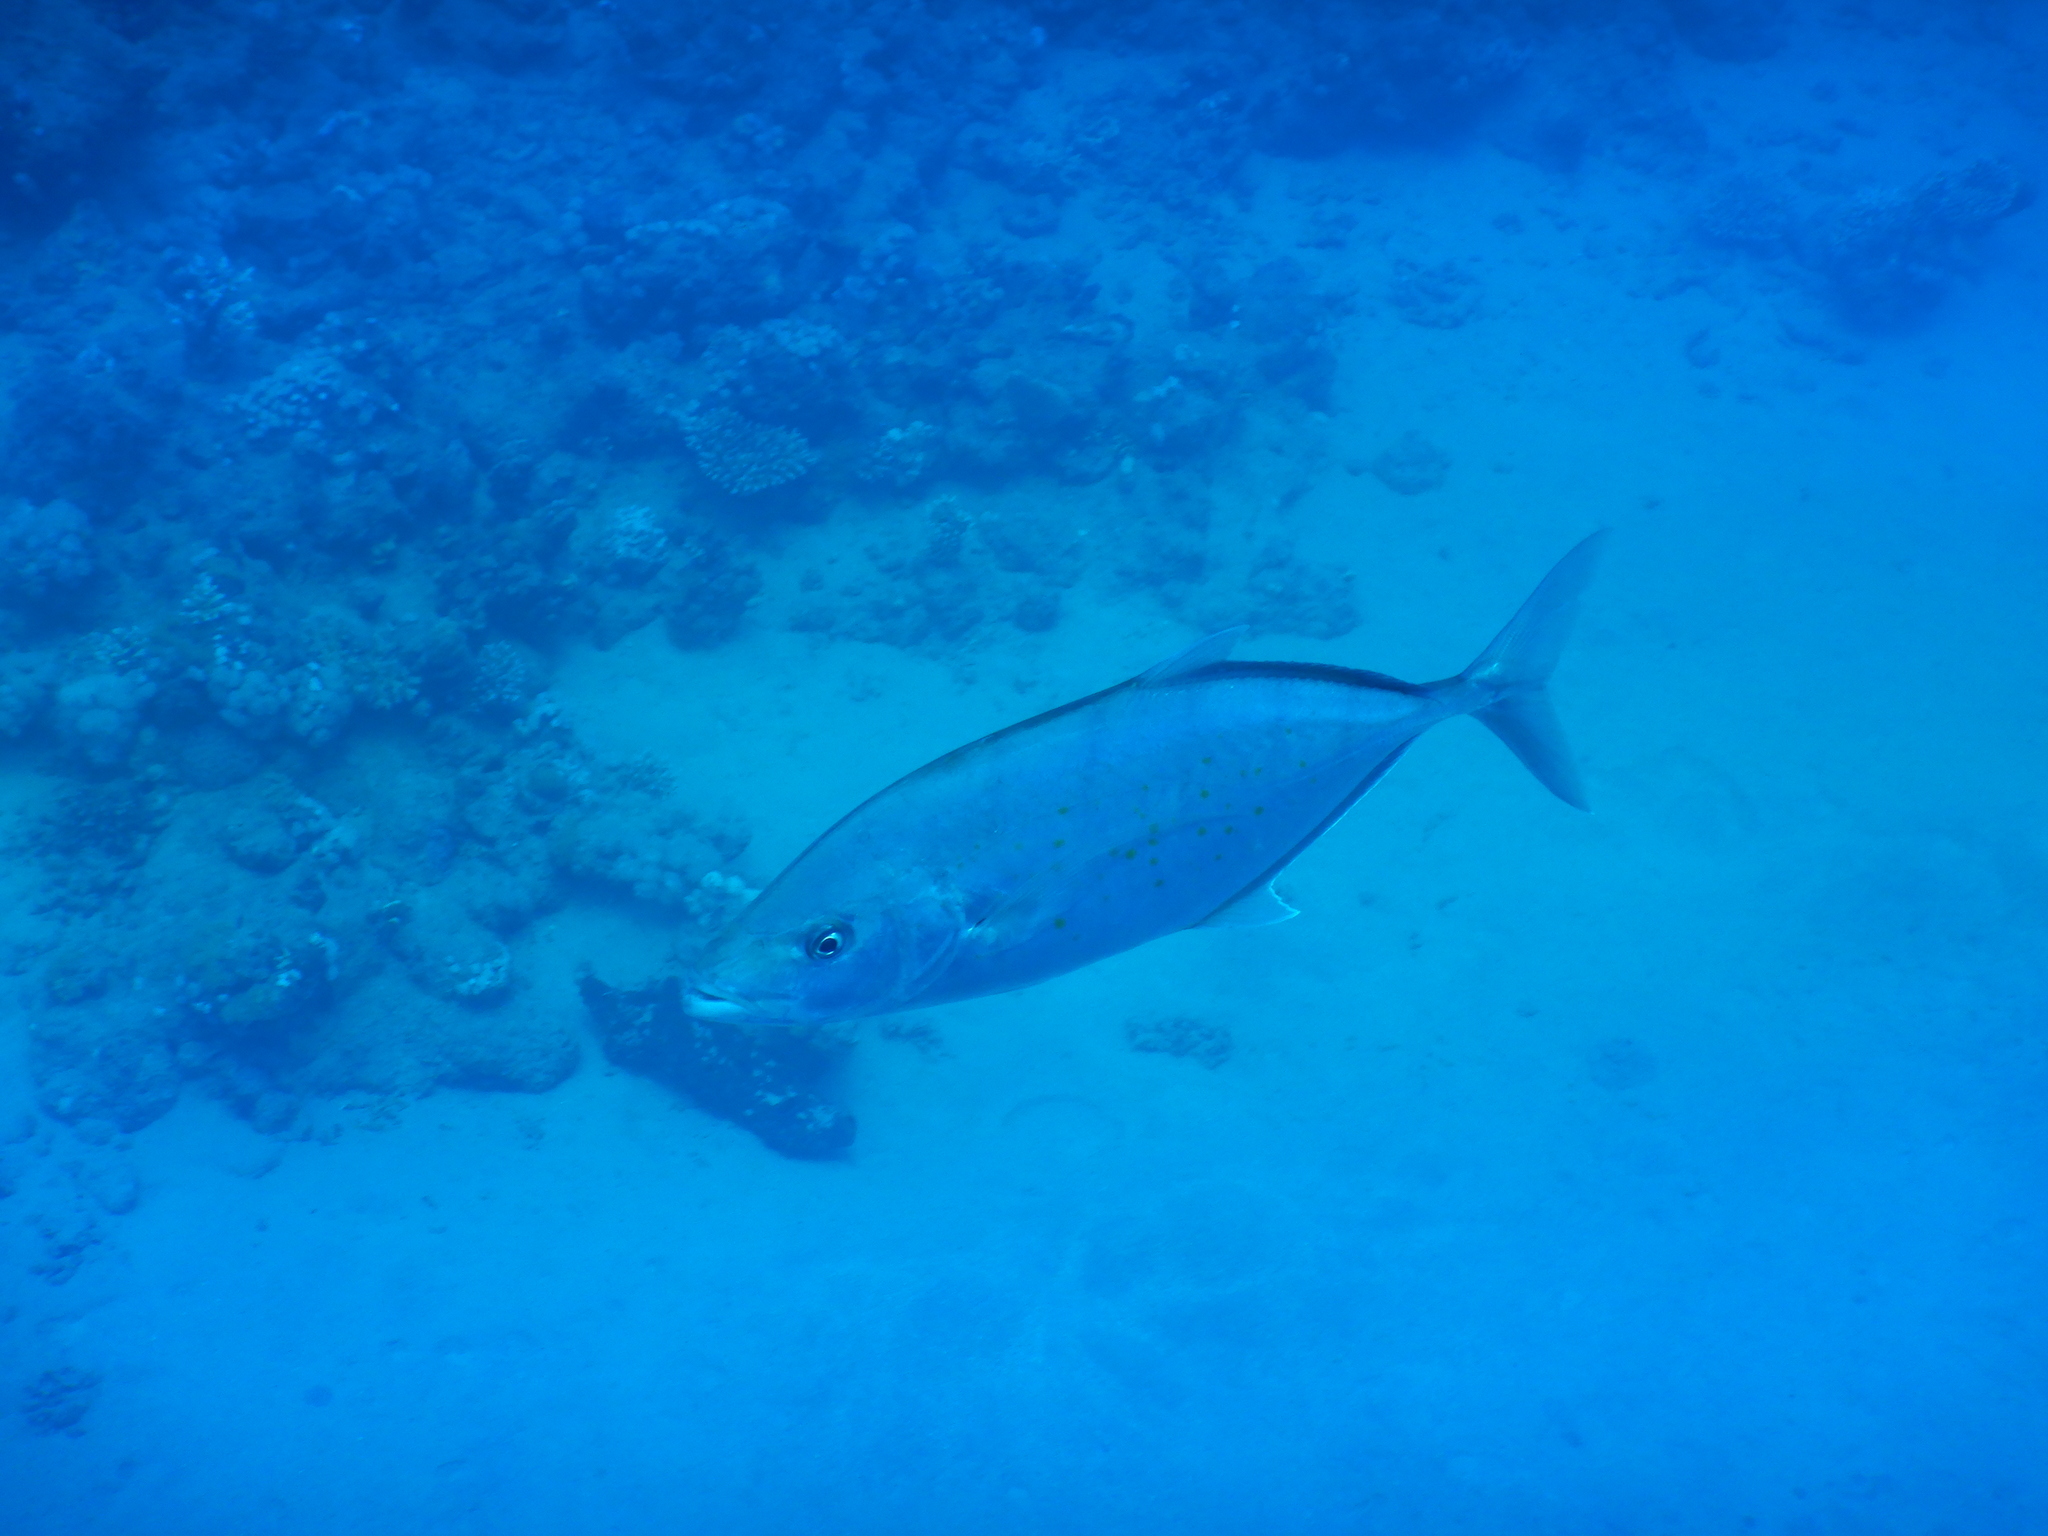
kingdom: Animalia
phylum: Chordata
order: Perciformes
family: Carangidae
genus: Flavocaranx
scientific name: Flavocaranx bajad
